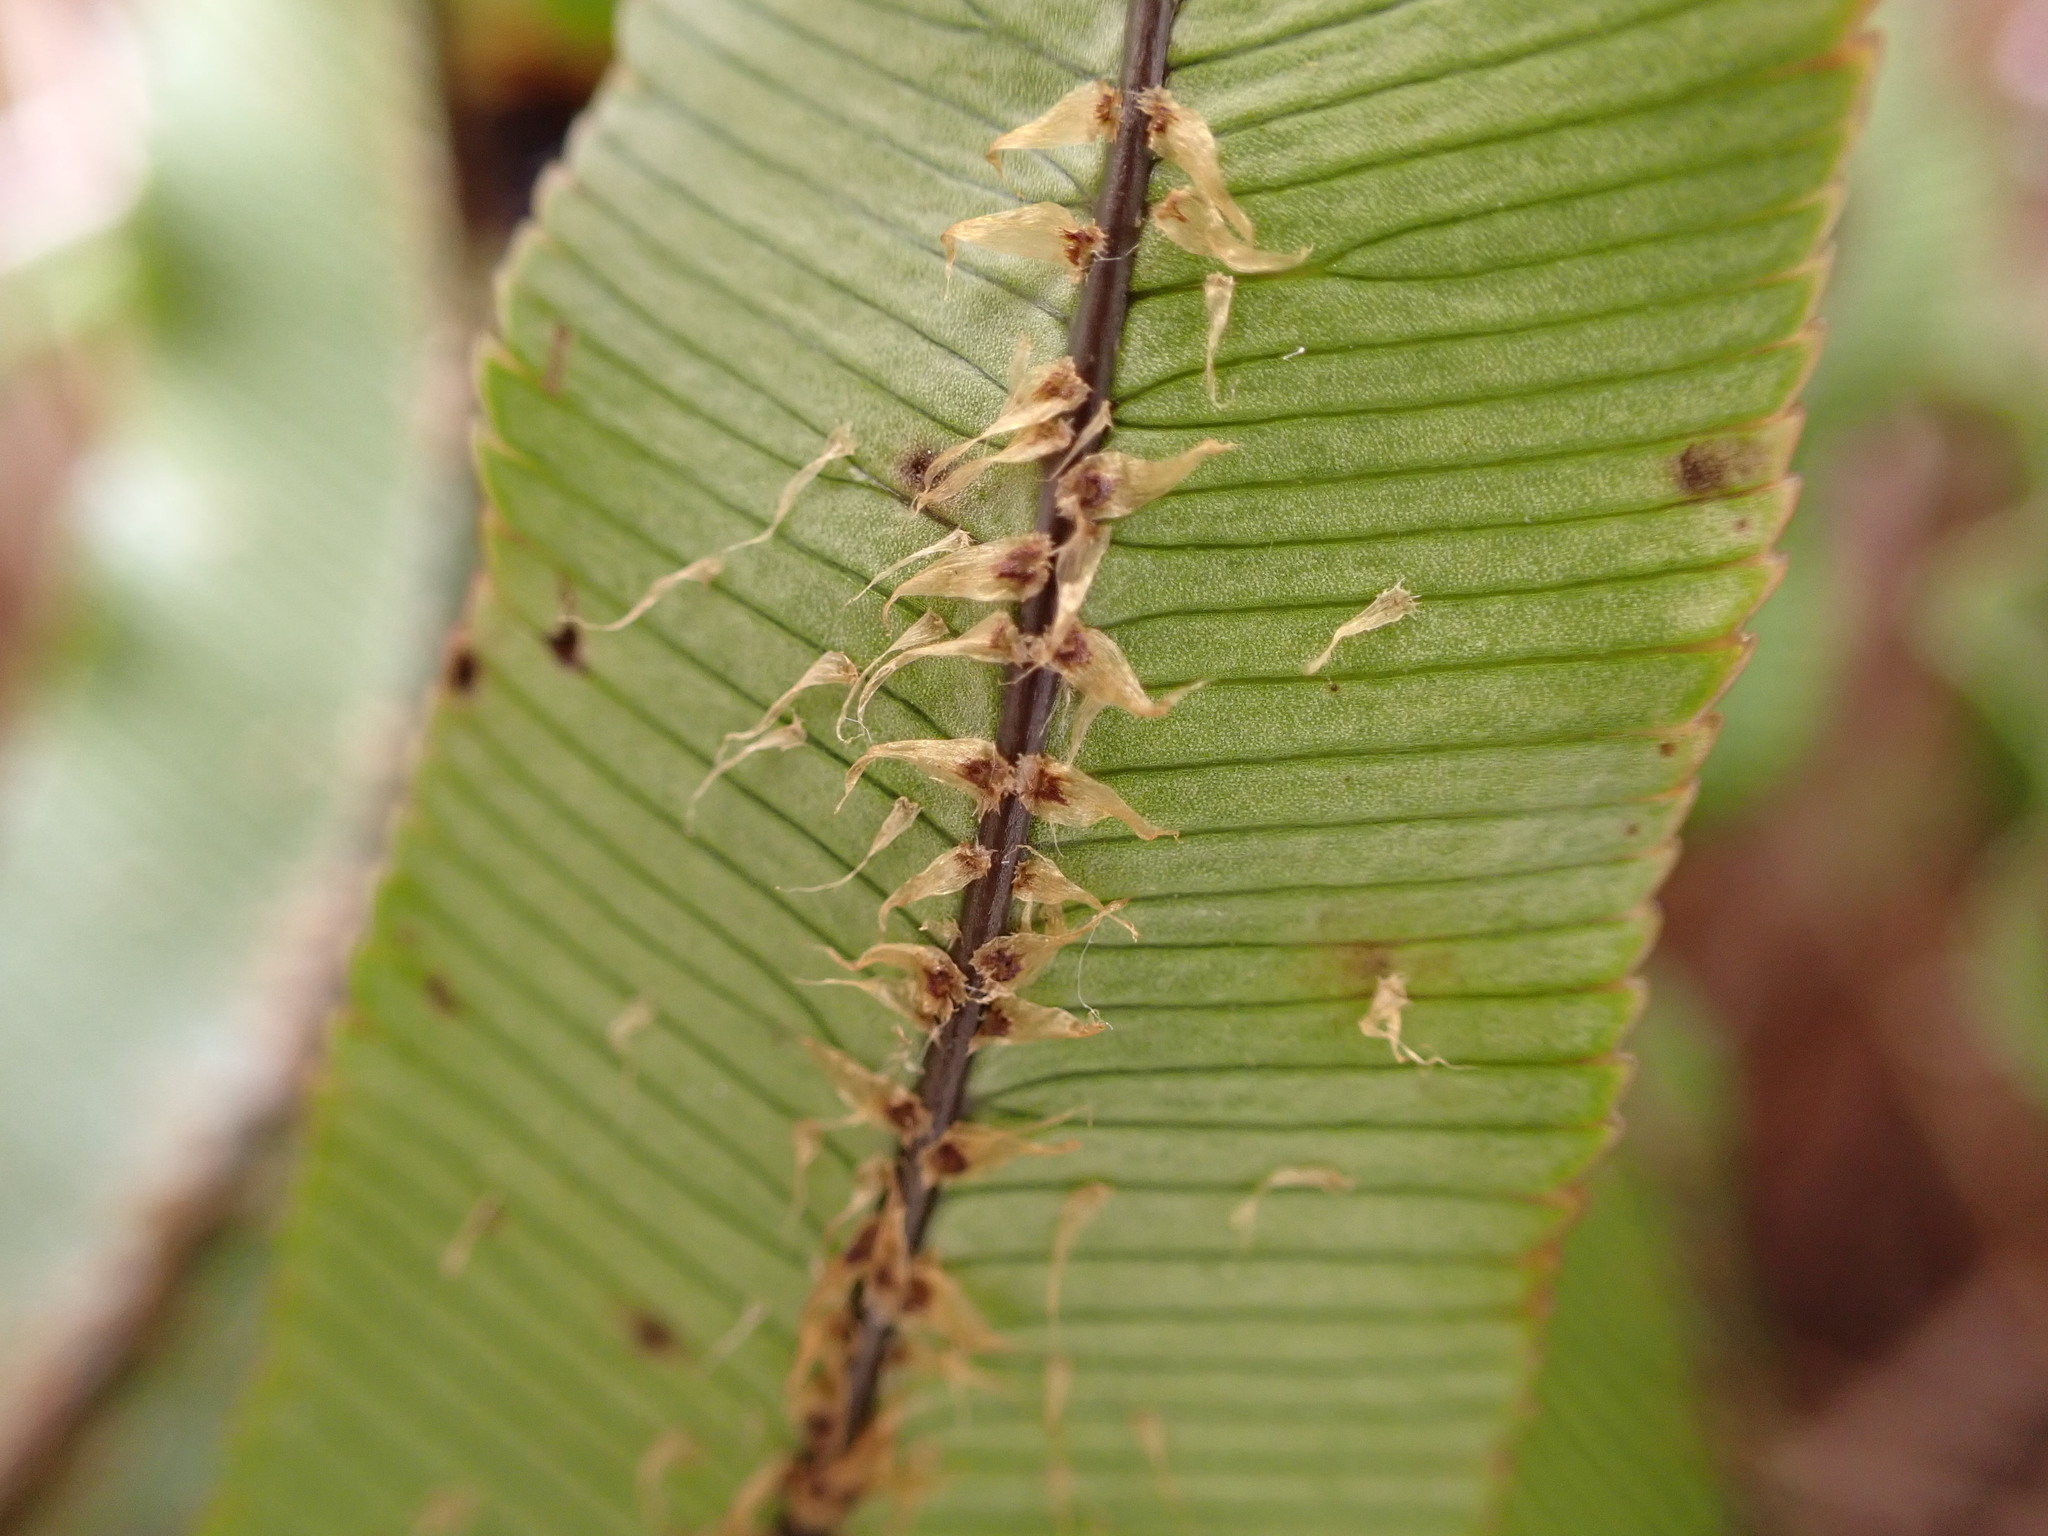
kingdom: Plantae
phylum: Tracheophyta
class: Polypodiopsida
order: Polypodiales
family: Blechnaceae
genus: Parablechnum
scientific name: Parablechnum montanum
